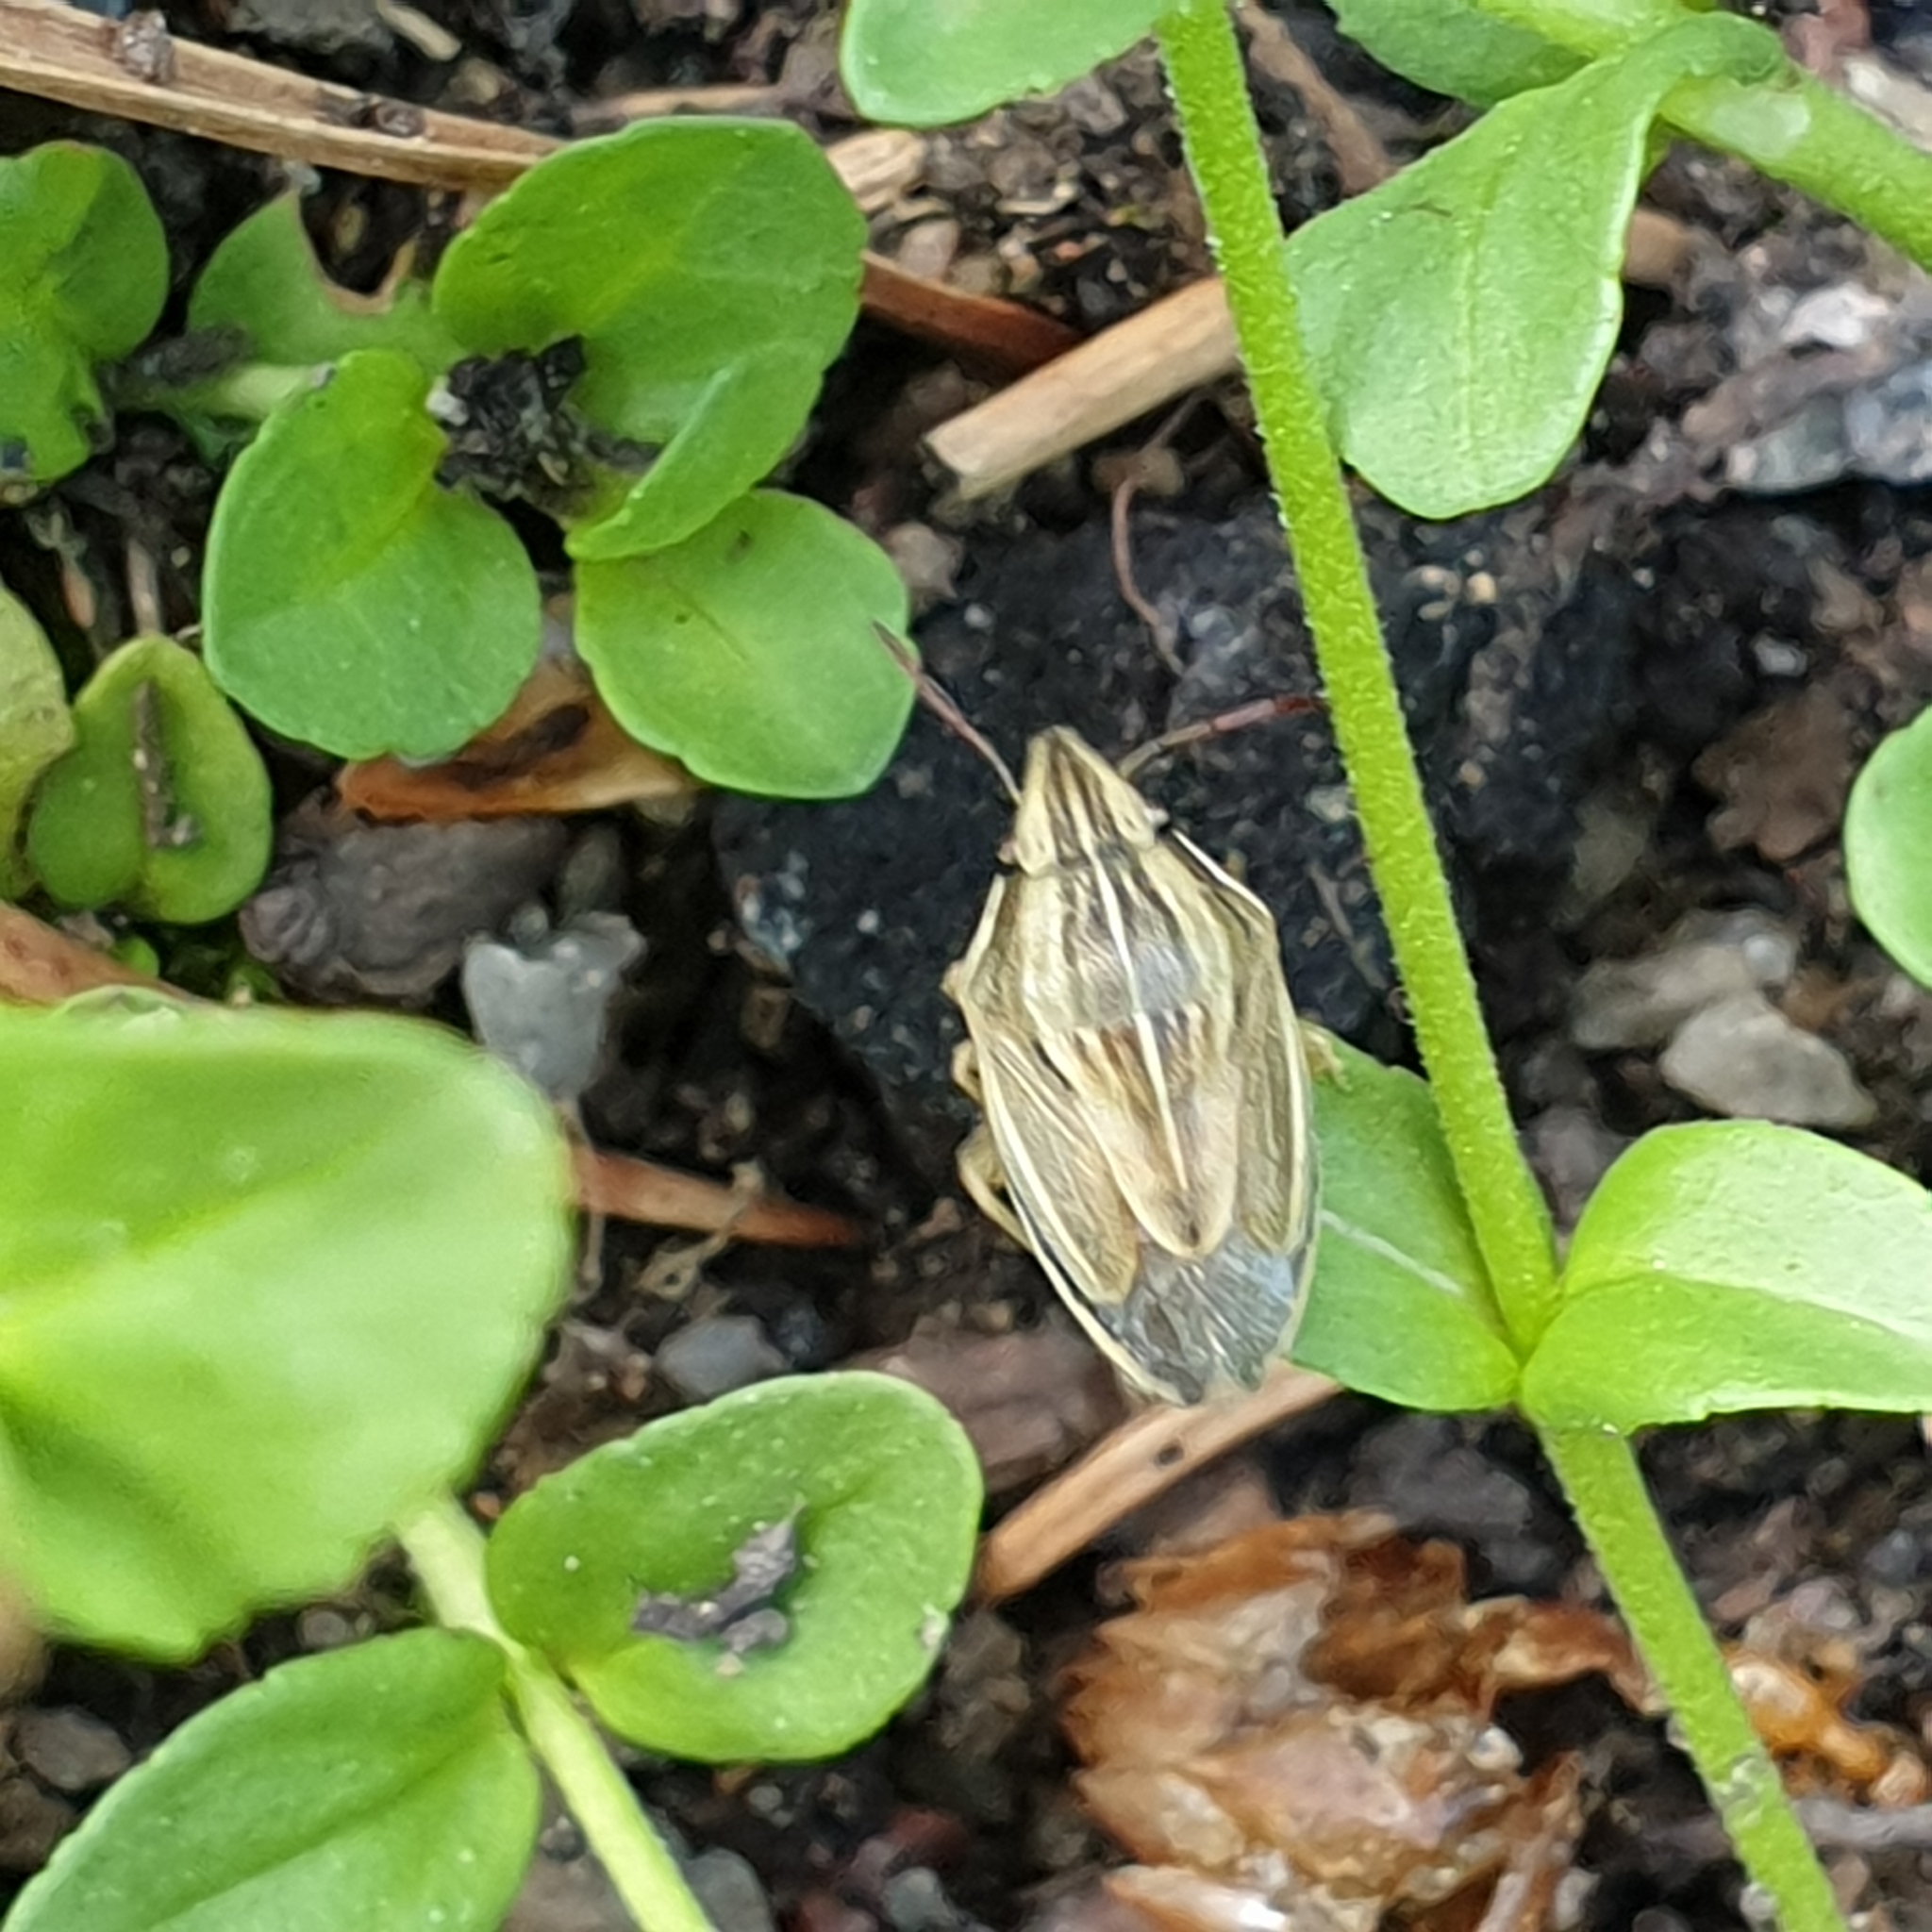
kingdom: Animalia
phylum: Arthropoda
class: Insecta
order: Hemiptera
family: Pentatomidae
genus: Aelia
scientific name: Aelia acuminata
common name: Bishop's mitre
